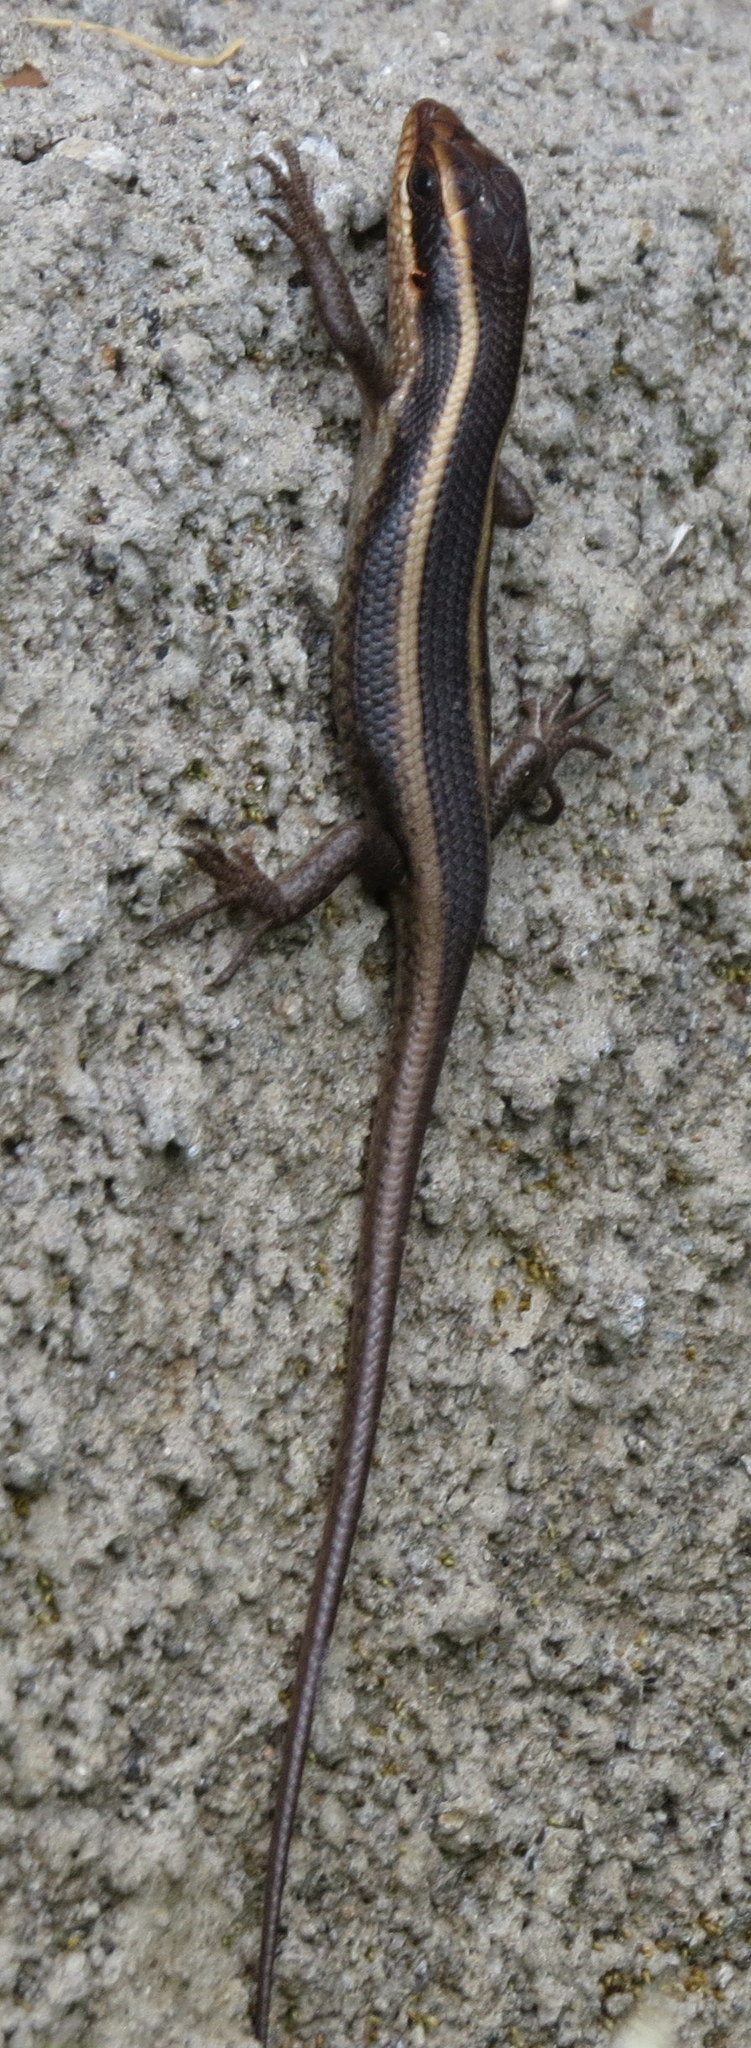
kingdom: Animalia
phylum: Chordata
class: Squamata
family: Scincidae
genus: Trachylepis
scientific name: Trachylepis striata
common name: African striped mabuya
